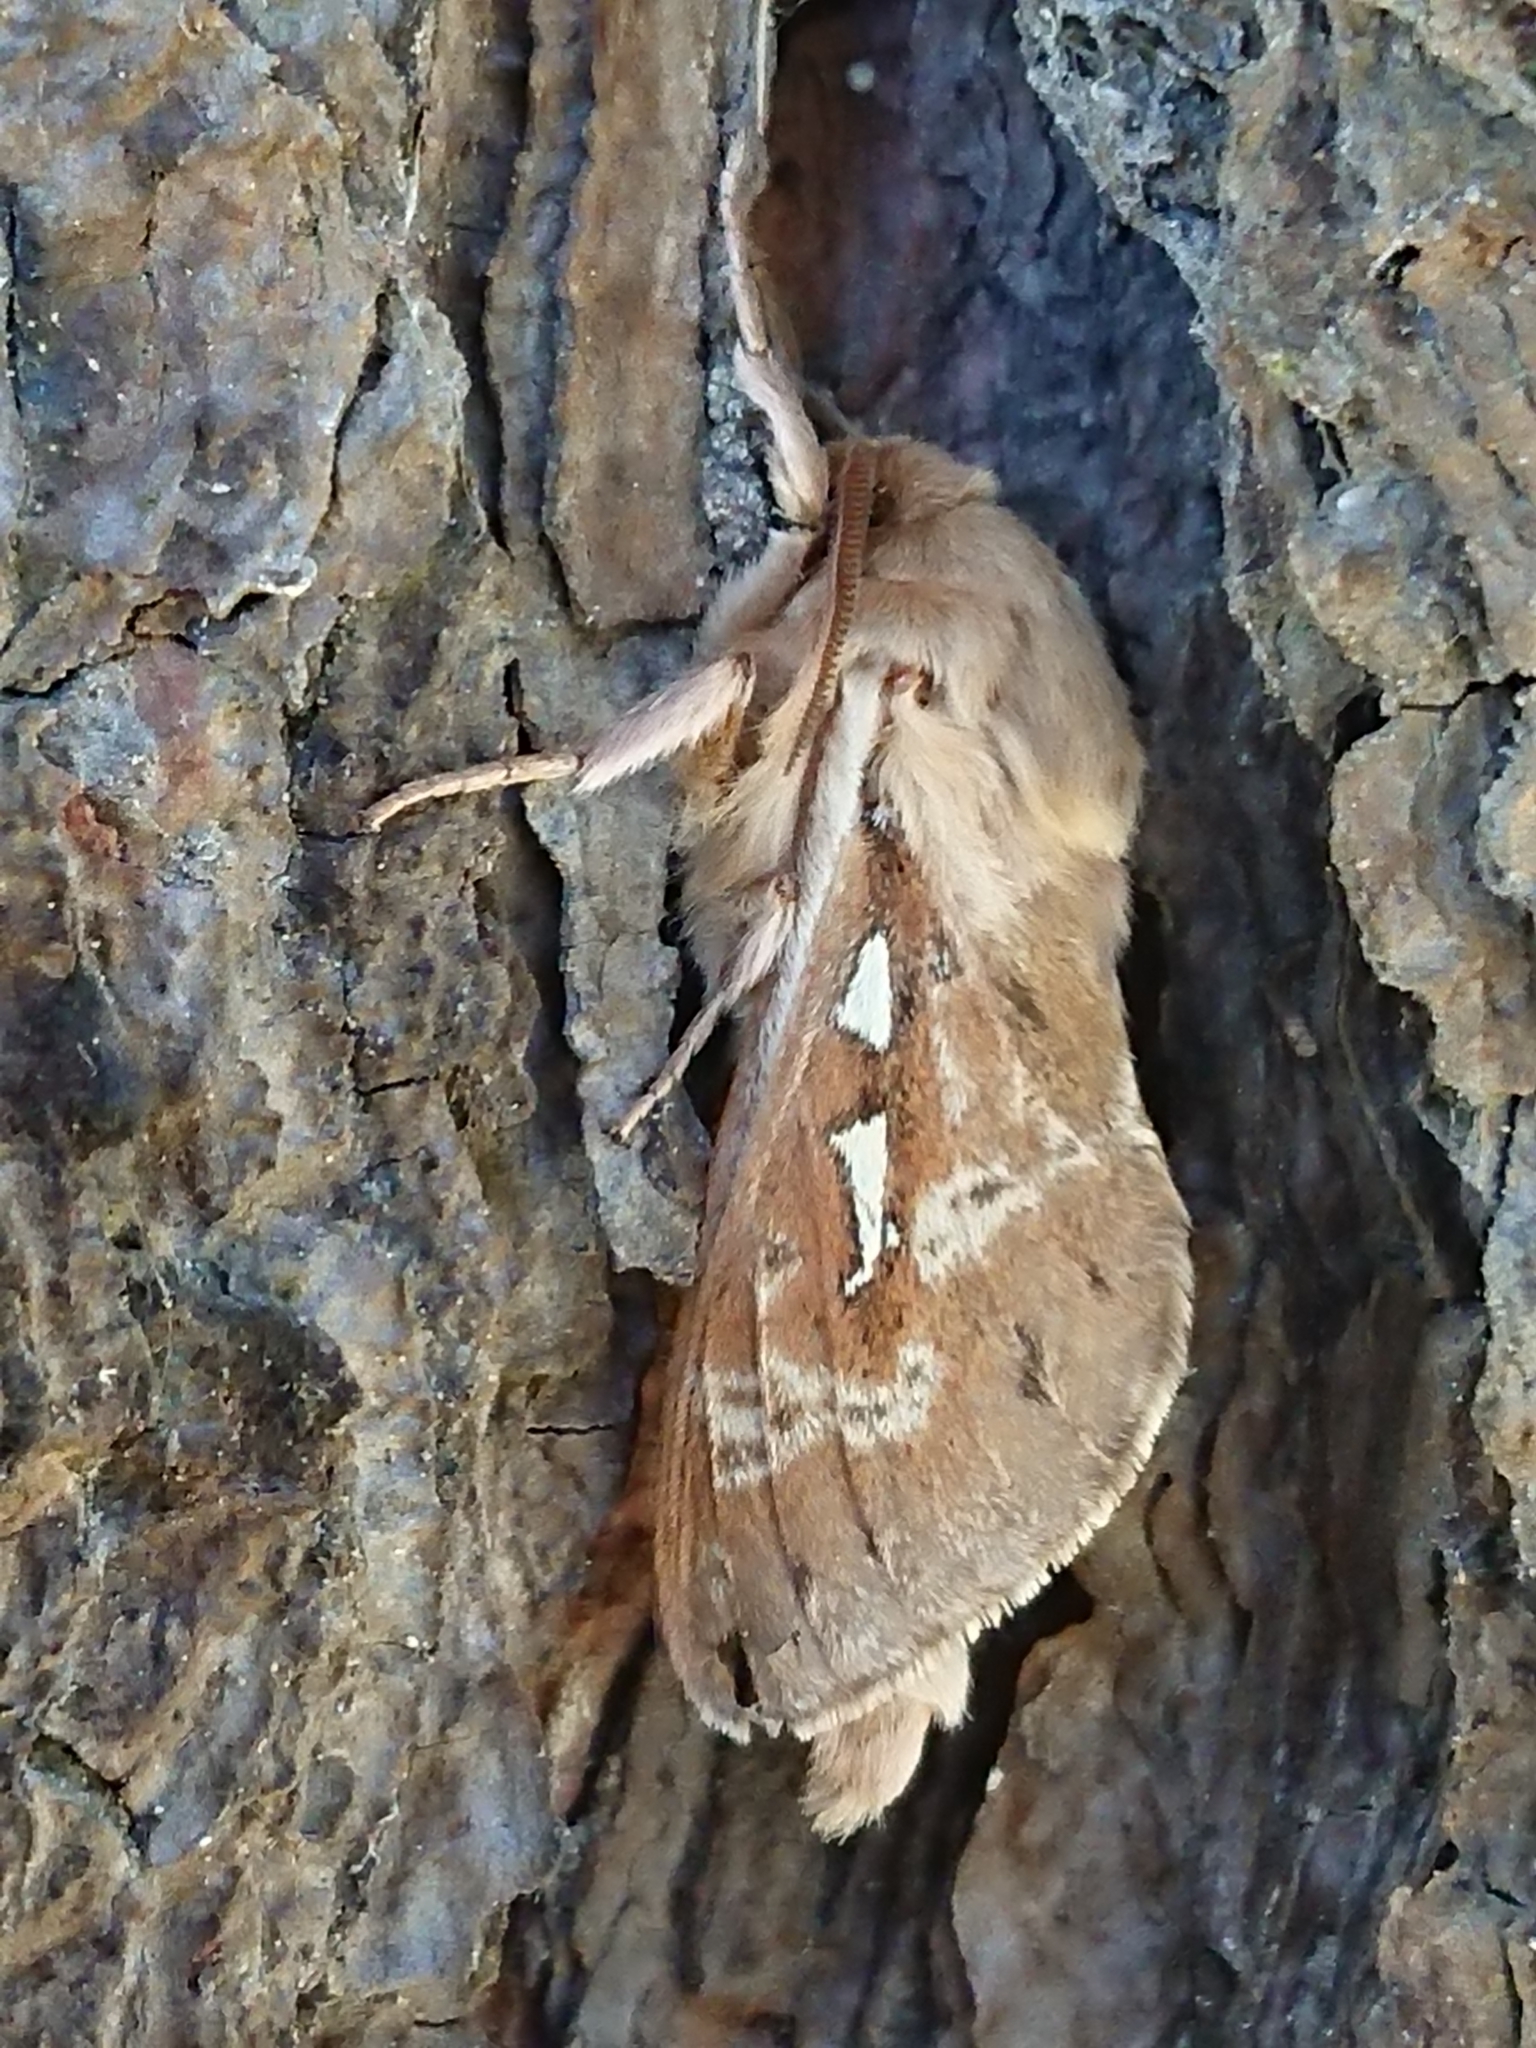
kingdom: Animalia
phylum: Arthropoda
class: Insecta
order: Lepidoptera
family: Hepialidae
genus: Wiseana
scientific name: Wiseana copularis
